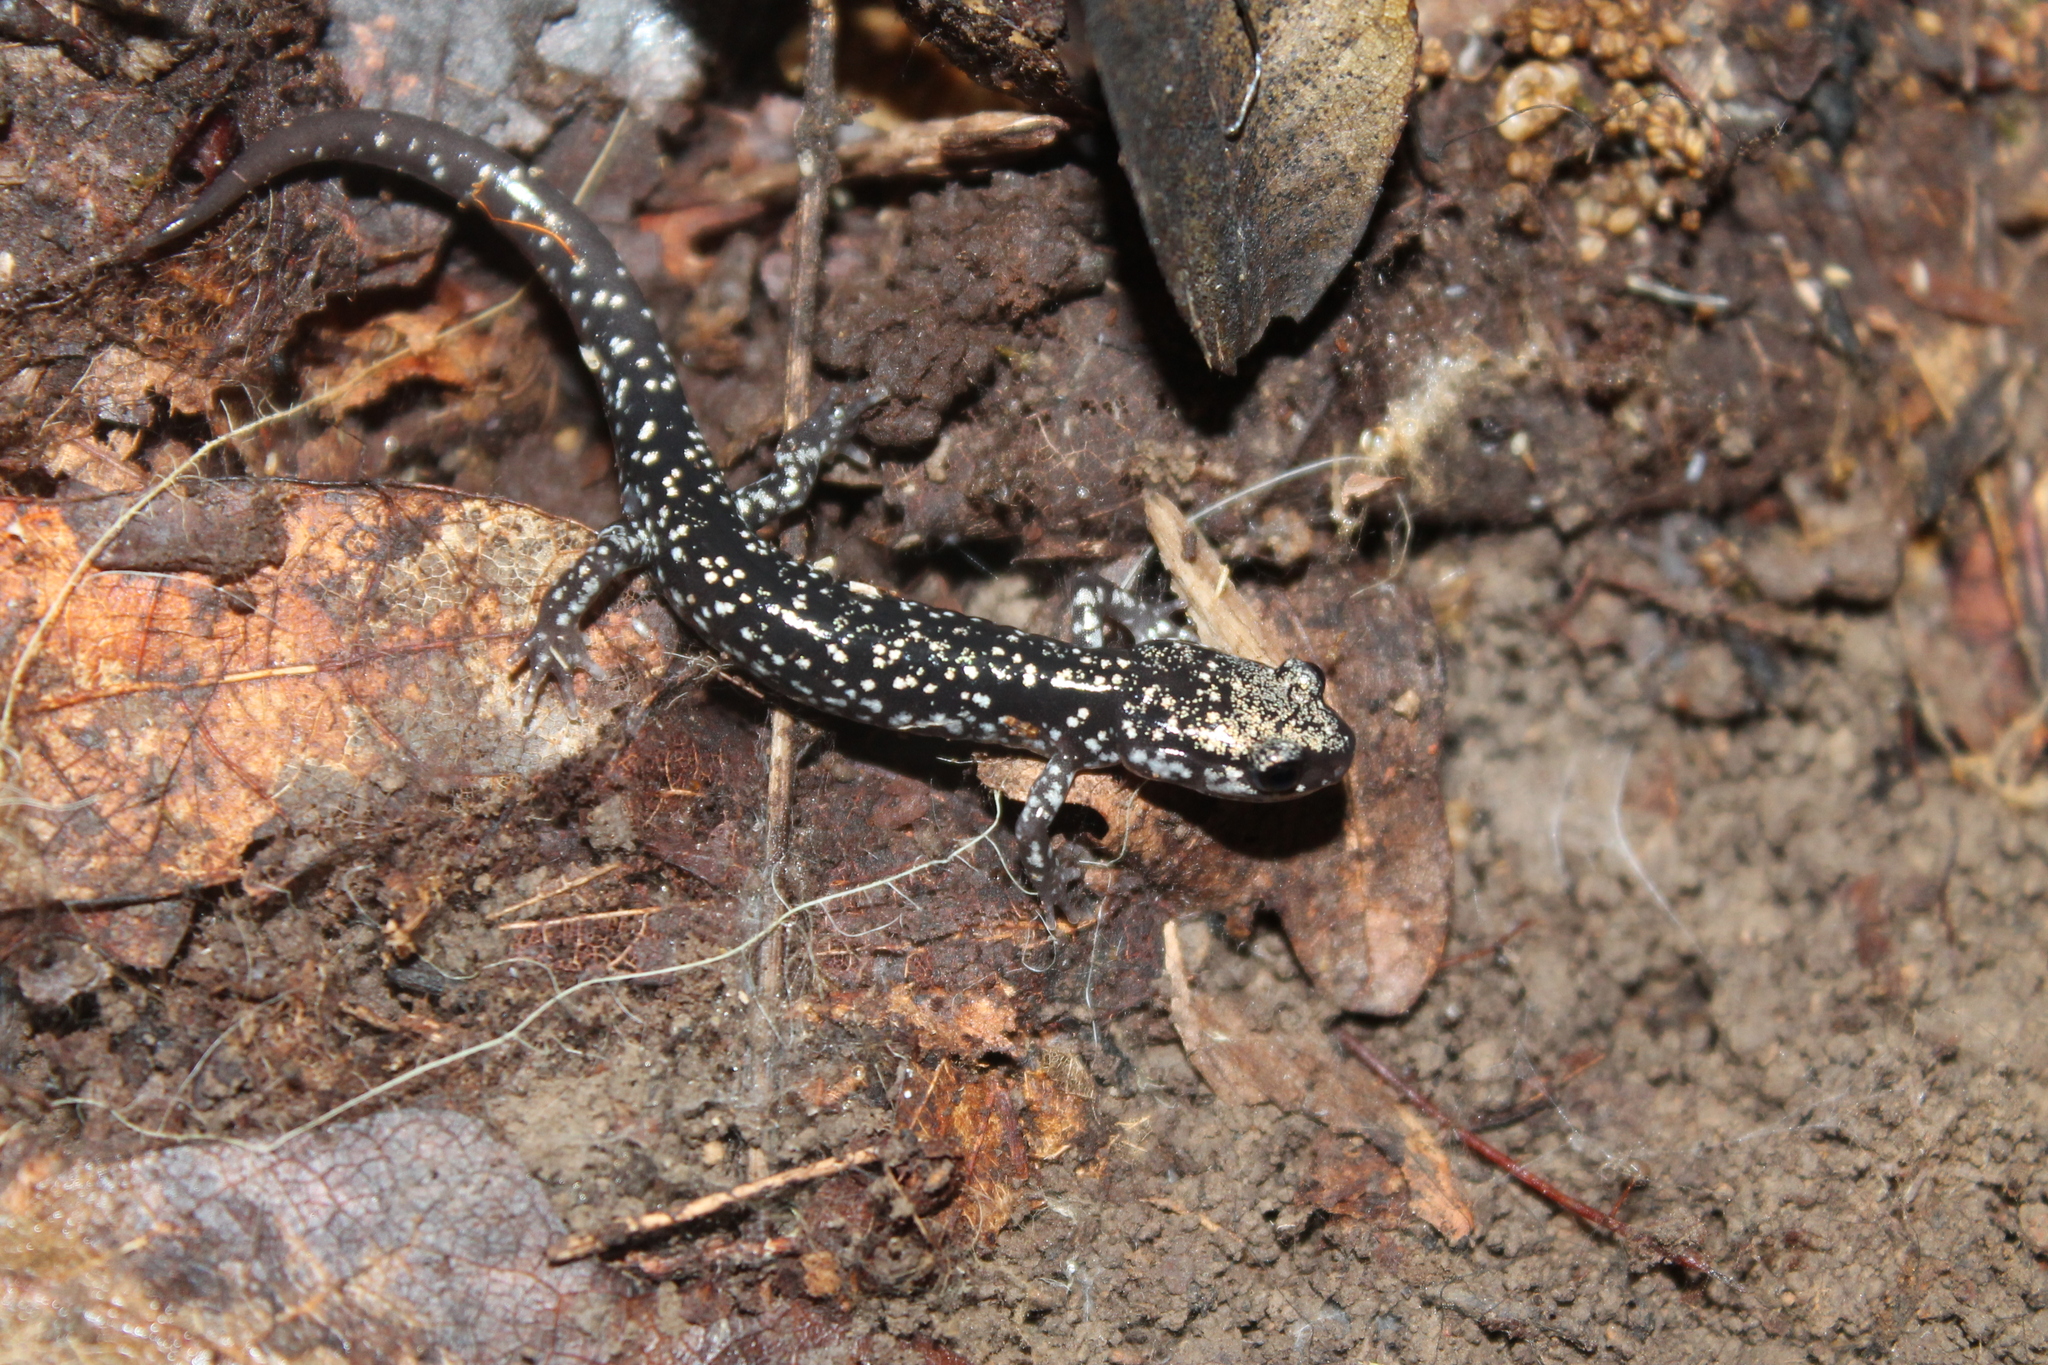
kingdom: Animalia
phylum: Chordata
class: Amphibia
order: Caudata
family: Plethodontidae
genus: Plethodon
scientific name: Plethodon glutinosus
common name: Northern slimy salamander
